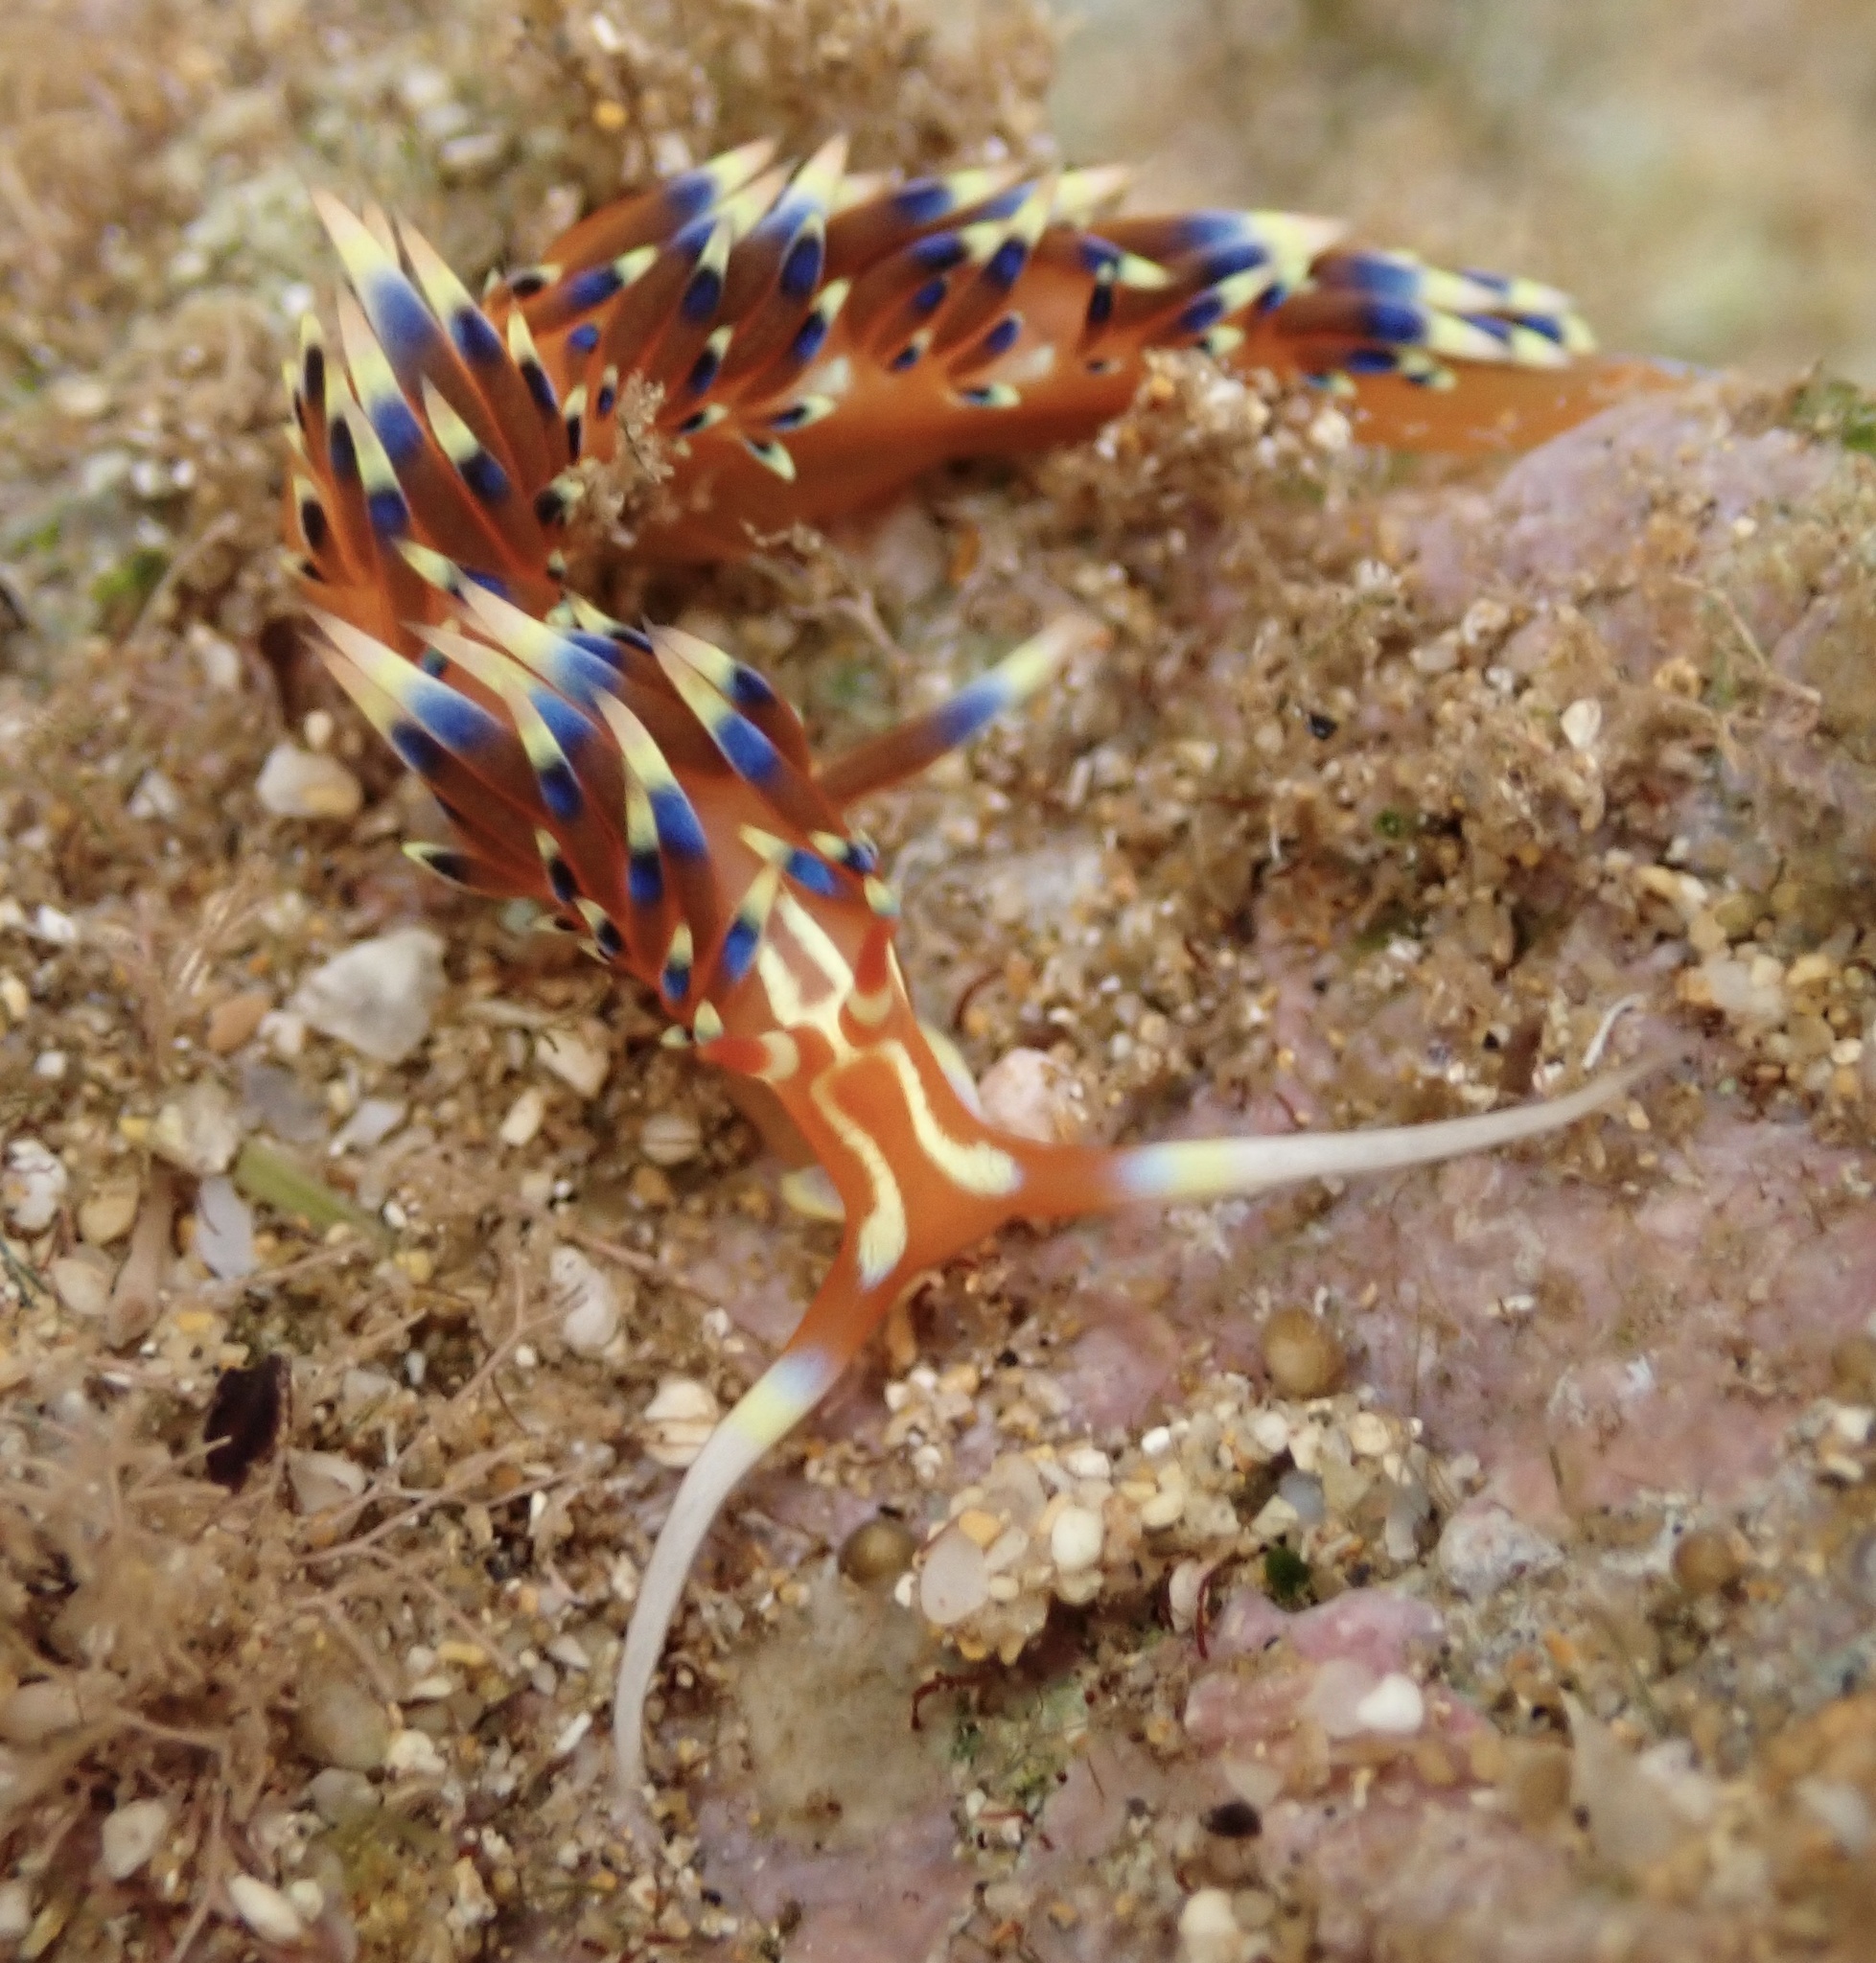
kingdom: Animalia
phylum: Mollusca
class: Gastropoda
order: Nudibranchia
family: Facelinidae
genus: Caloria
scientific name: Caloria indica
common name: Sea slug
